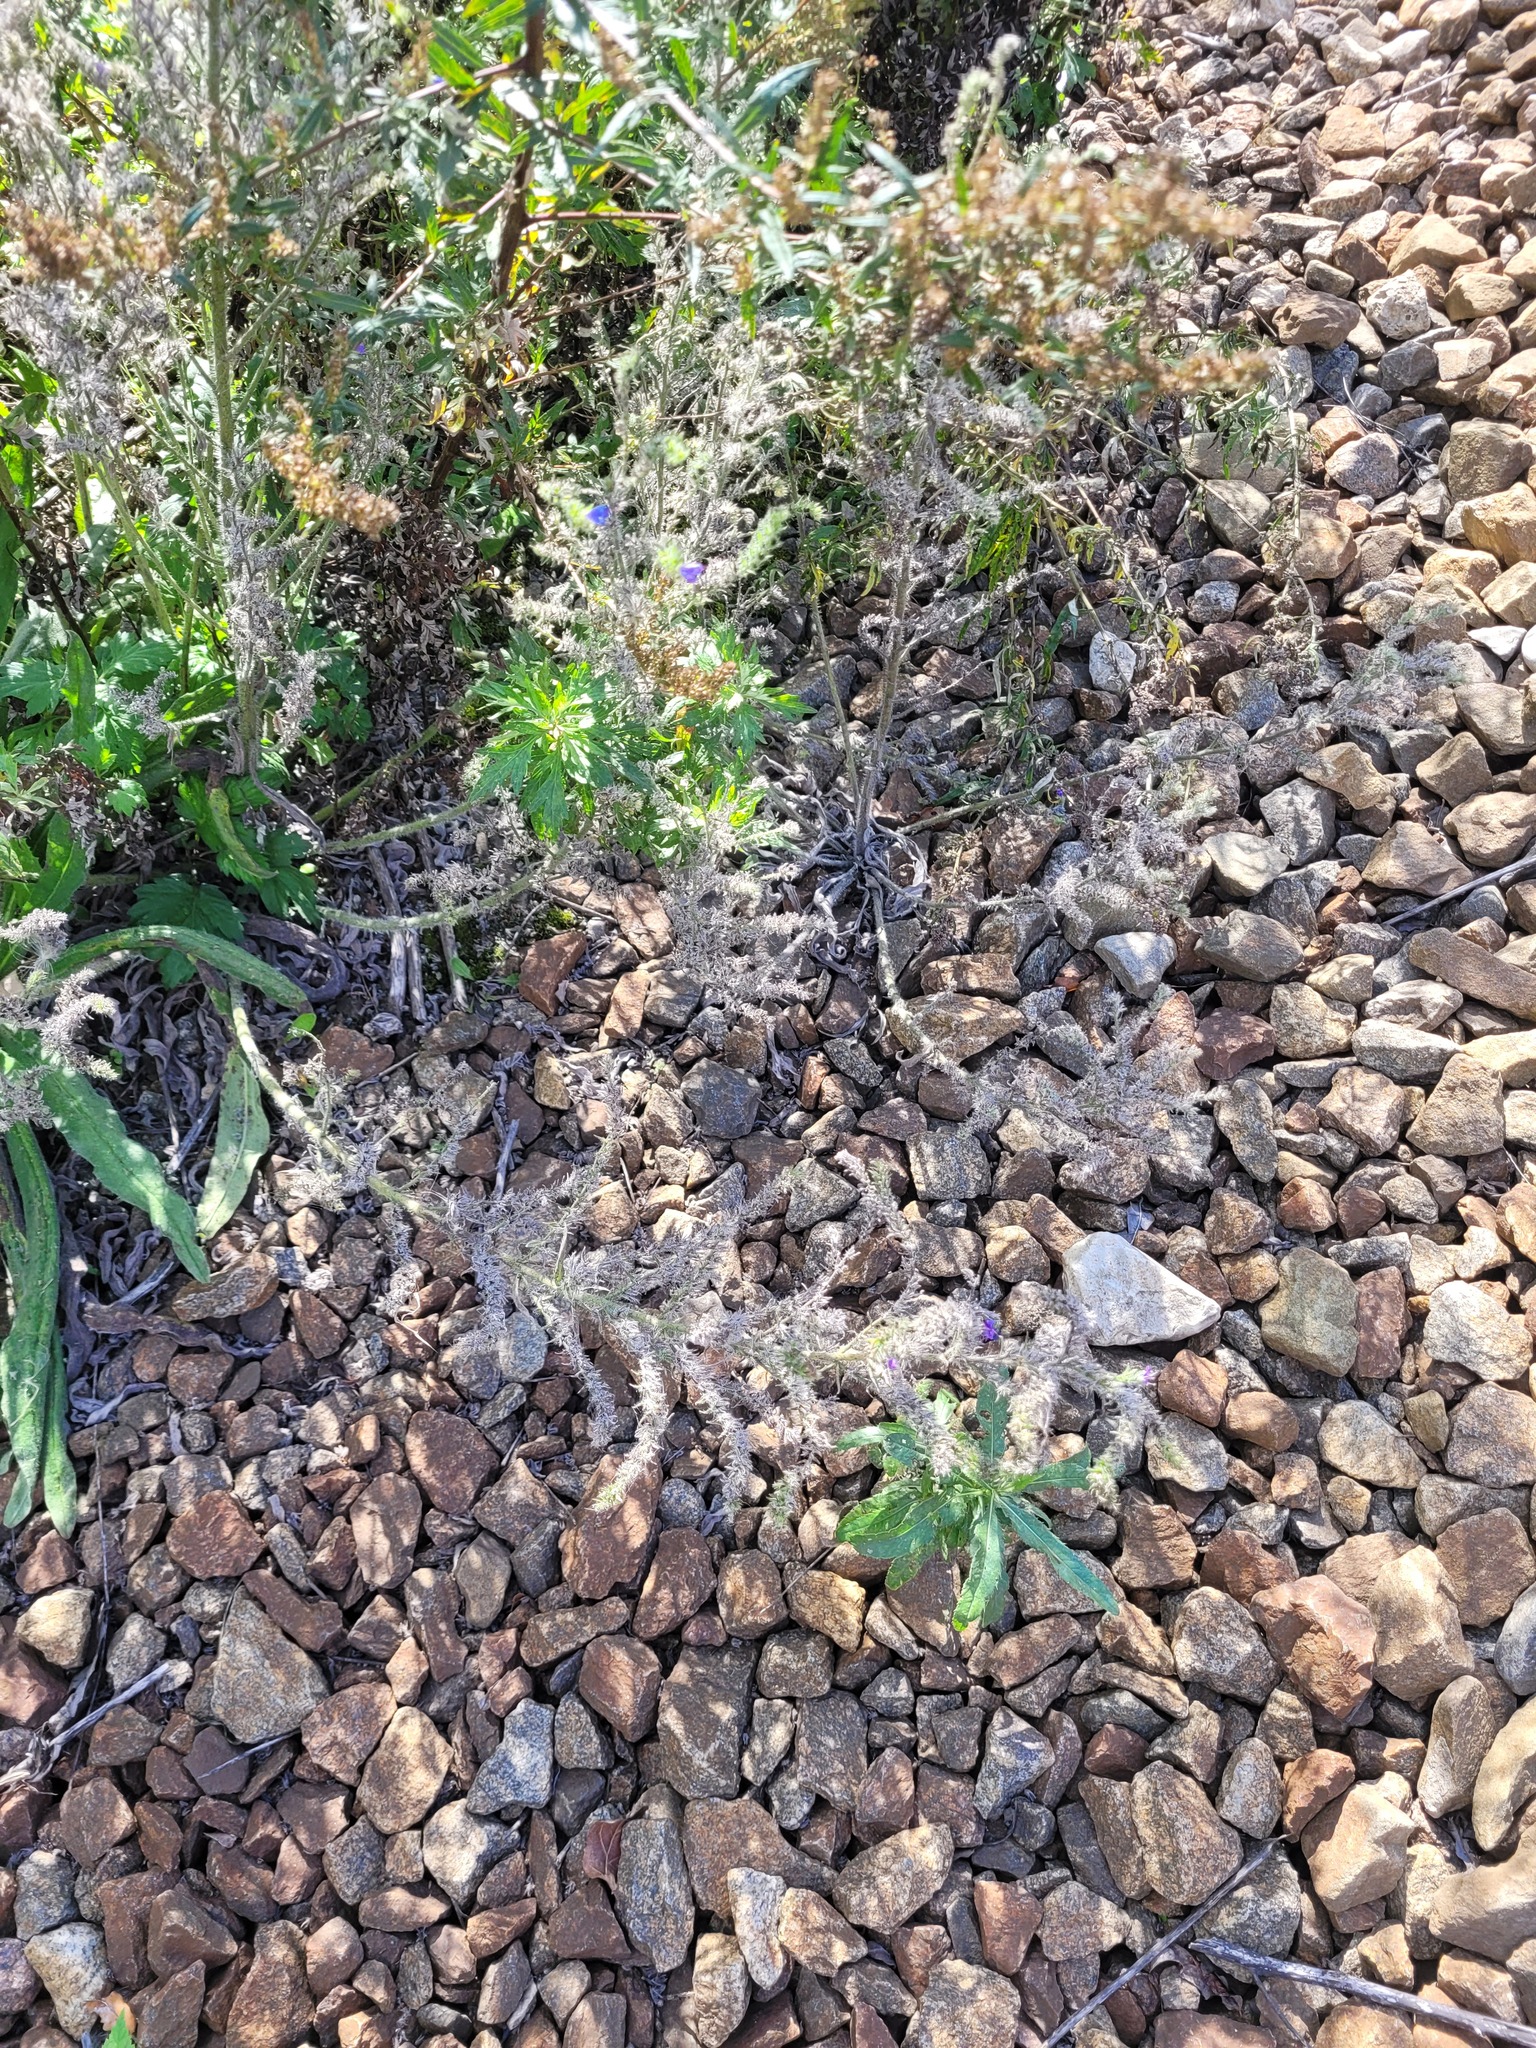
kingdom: Plantae
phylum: Tracheophyta
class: Magnoliopsida
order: Boraginales
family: Boraginaceae
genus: Echium
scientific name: Echium vulgare
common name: Common viper's bugloss
